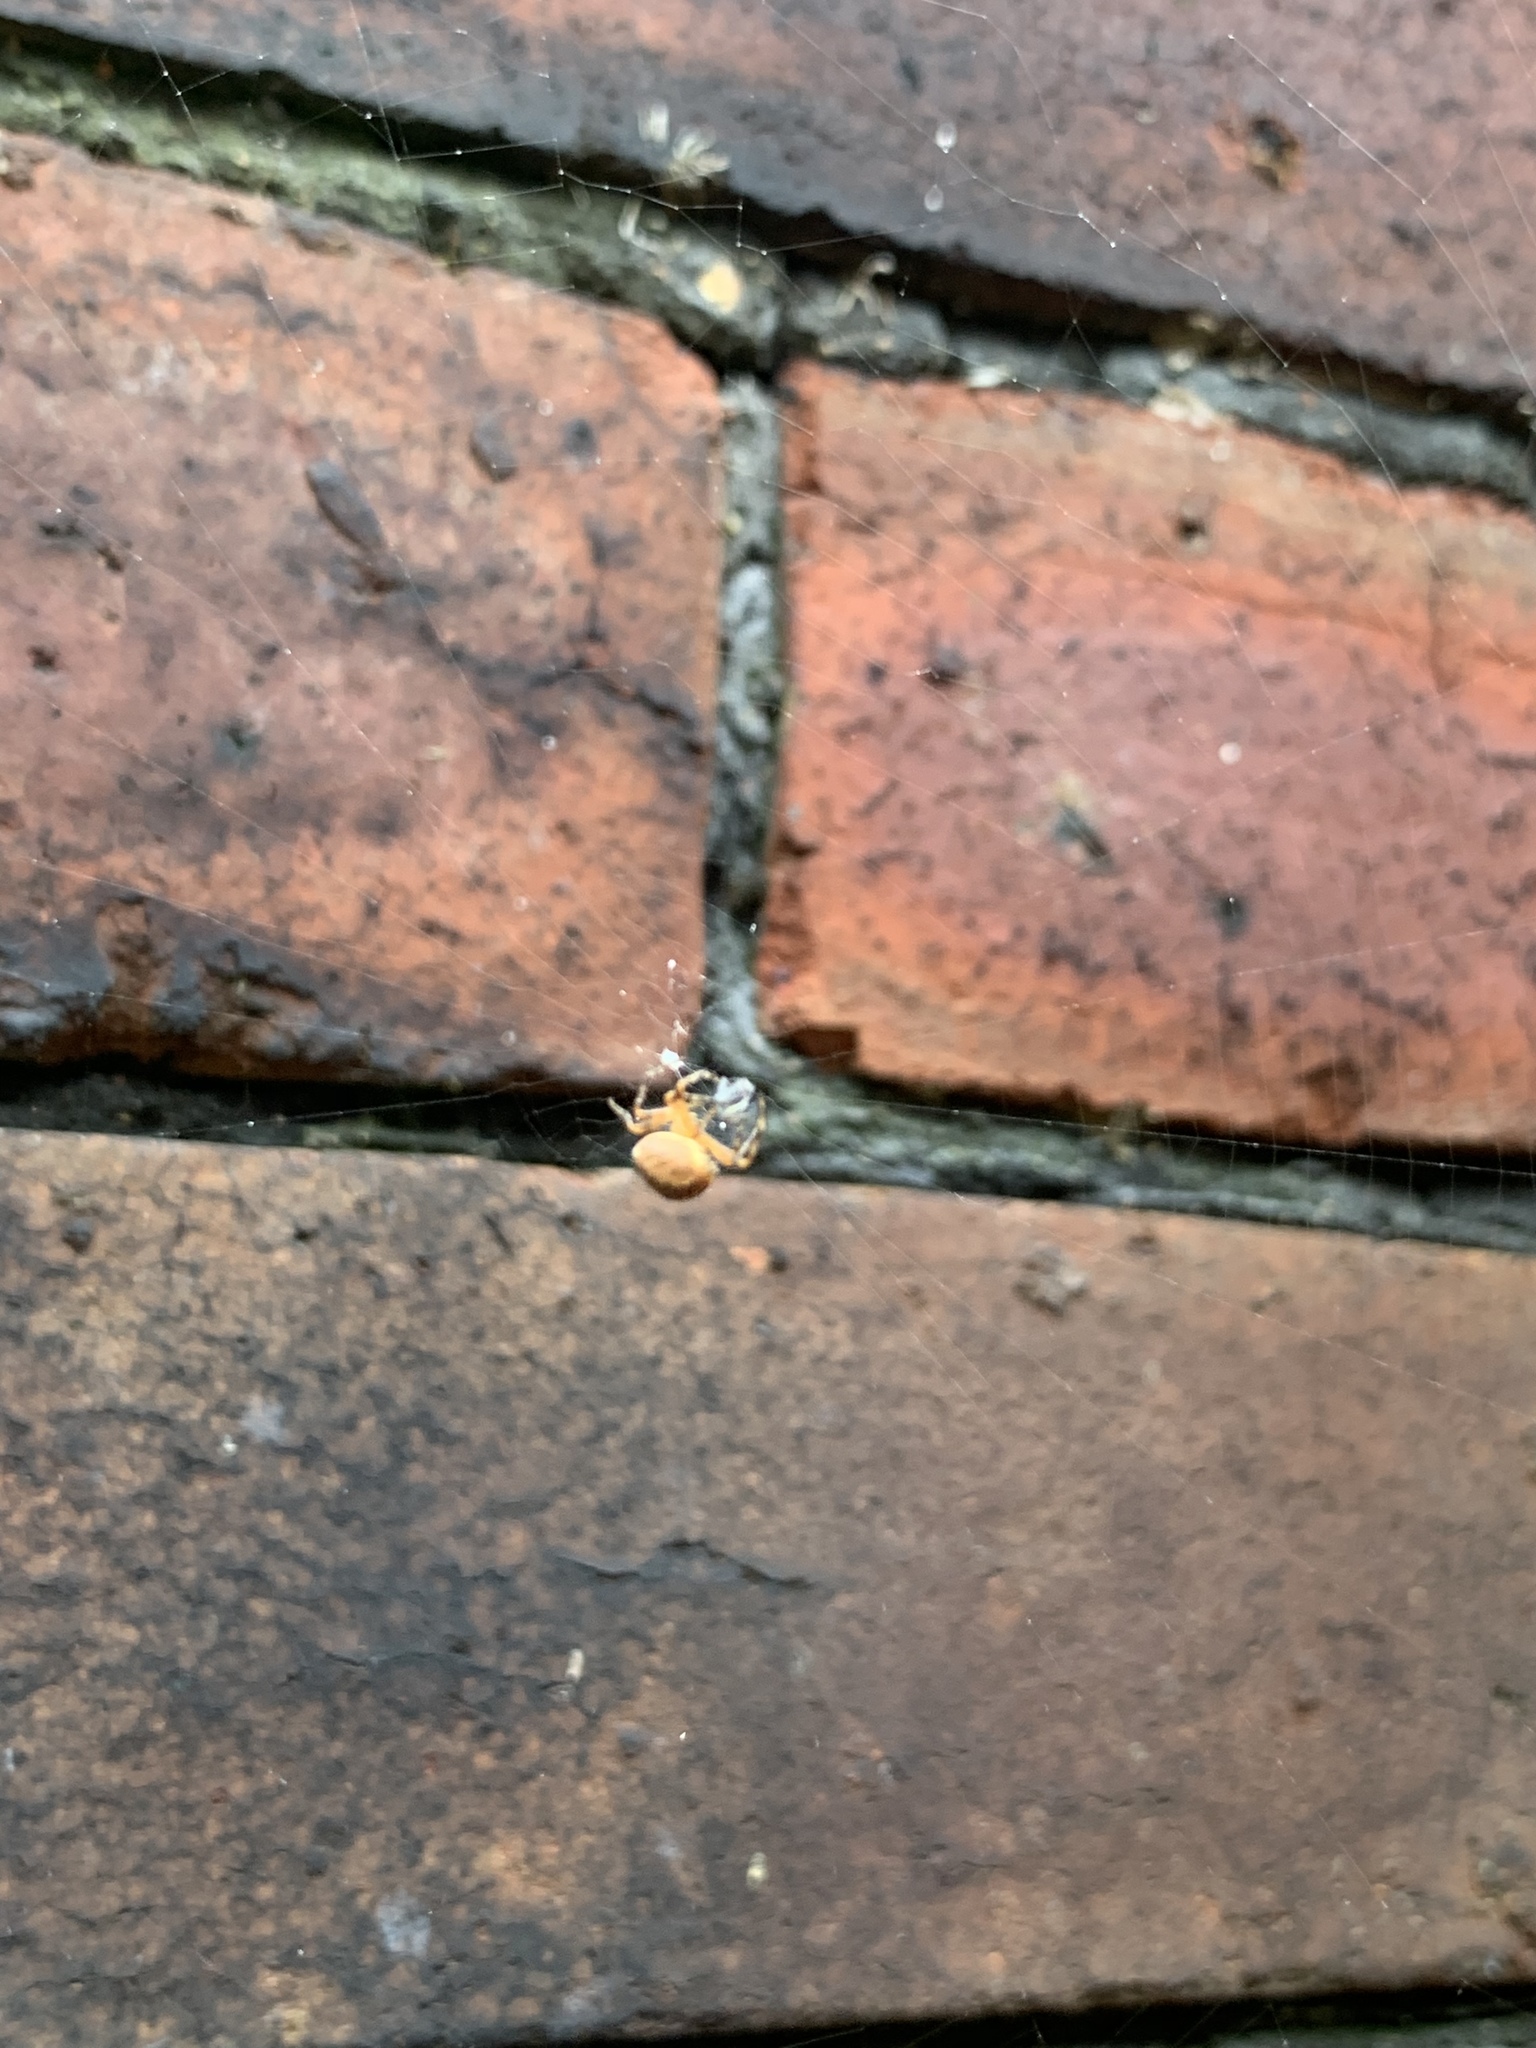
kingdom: Animalia
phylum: Arthropoda
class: Arachnida
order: Araneae
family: Araneidae
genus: Araneus
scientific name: Araneus diadematus
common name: Cross orbweaver
